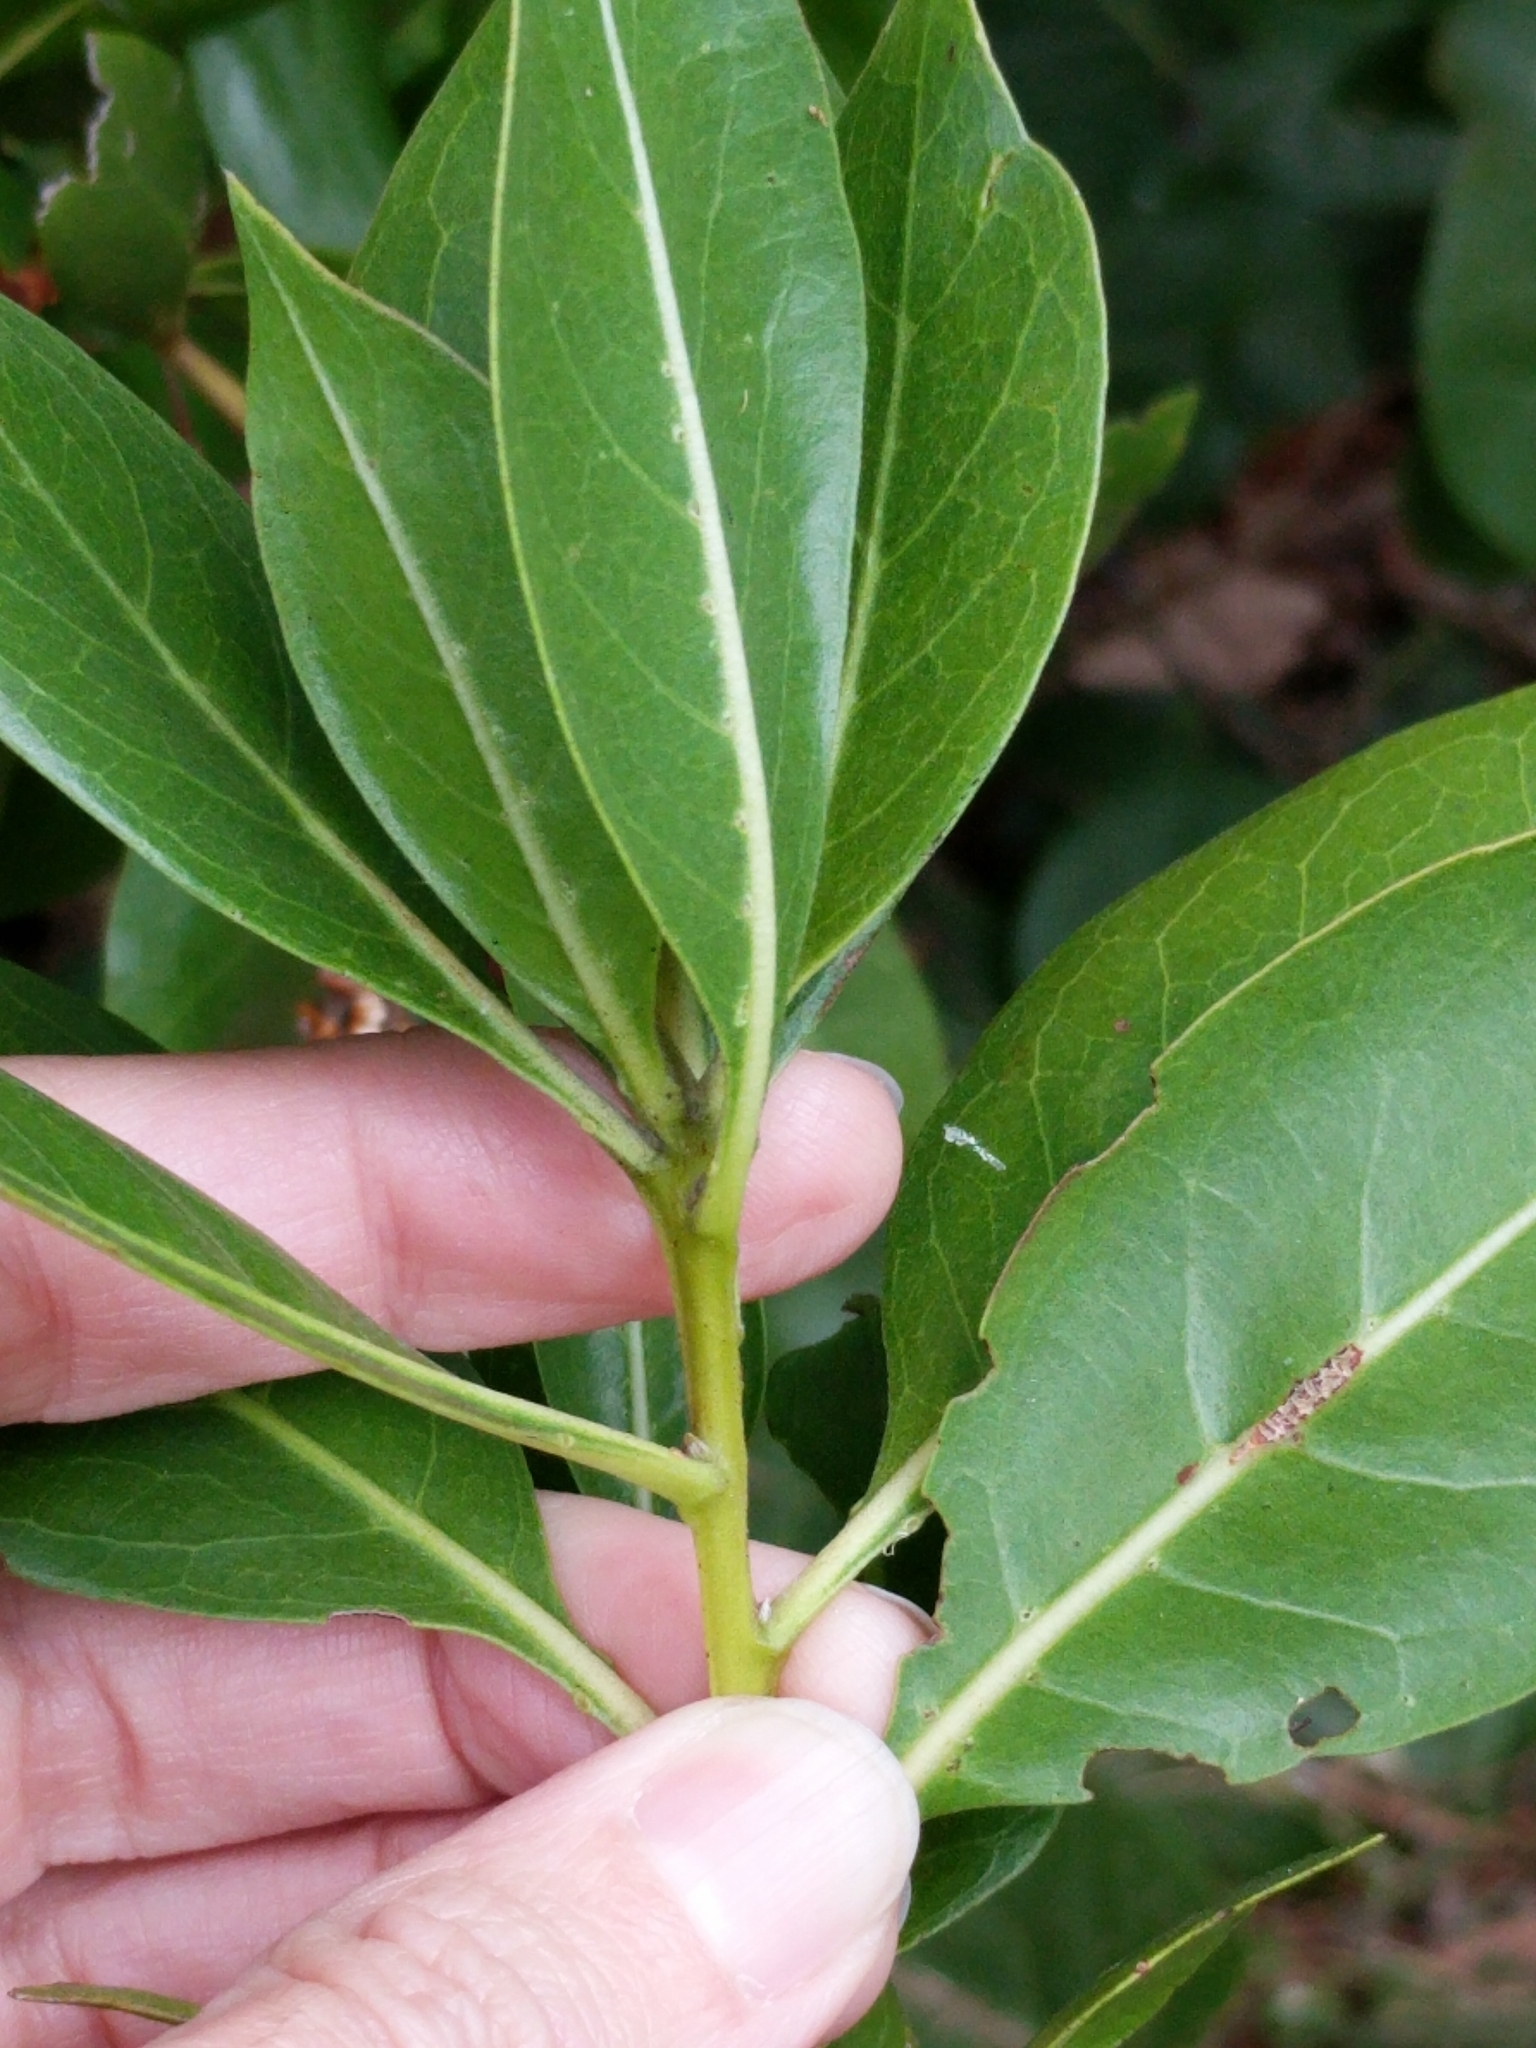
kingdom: Plantae
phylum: Tracheophyta
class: Magnoliopsida
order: Myrtales
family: Combretaceae
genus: Conocarpus
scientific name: Conocarpus erectus
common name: Button mangrove
